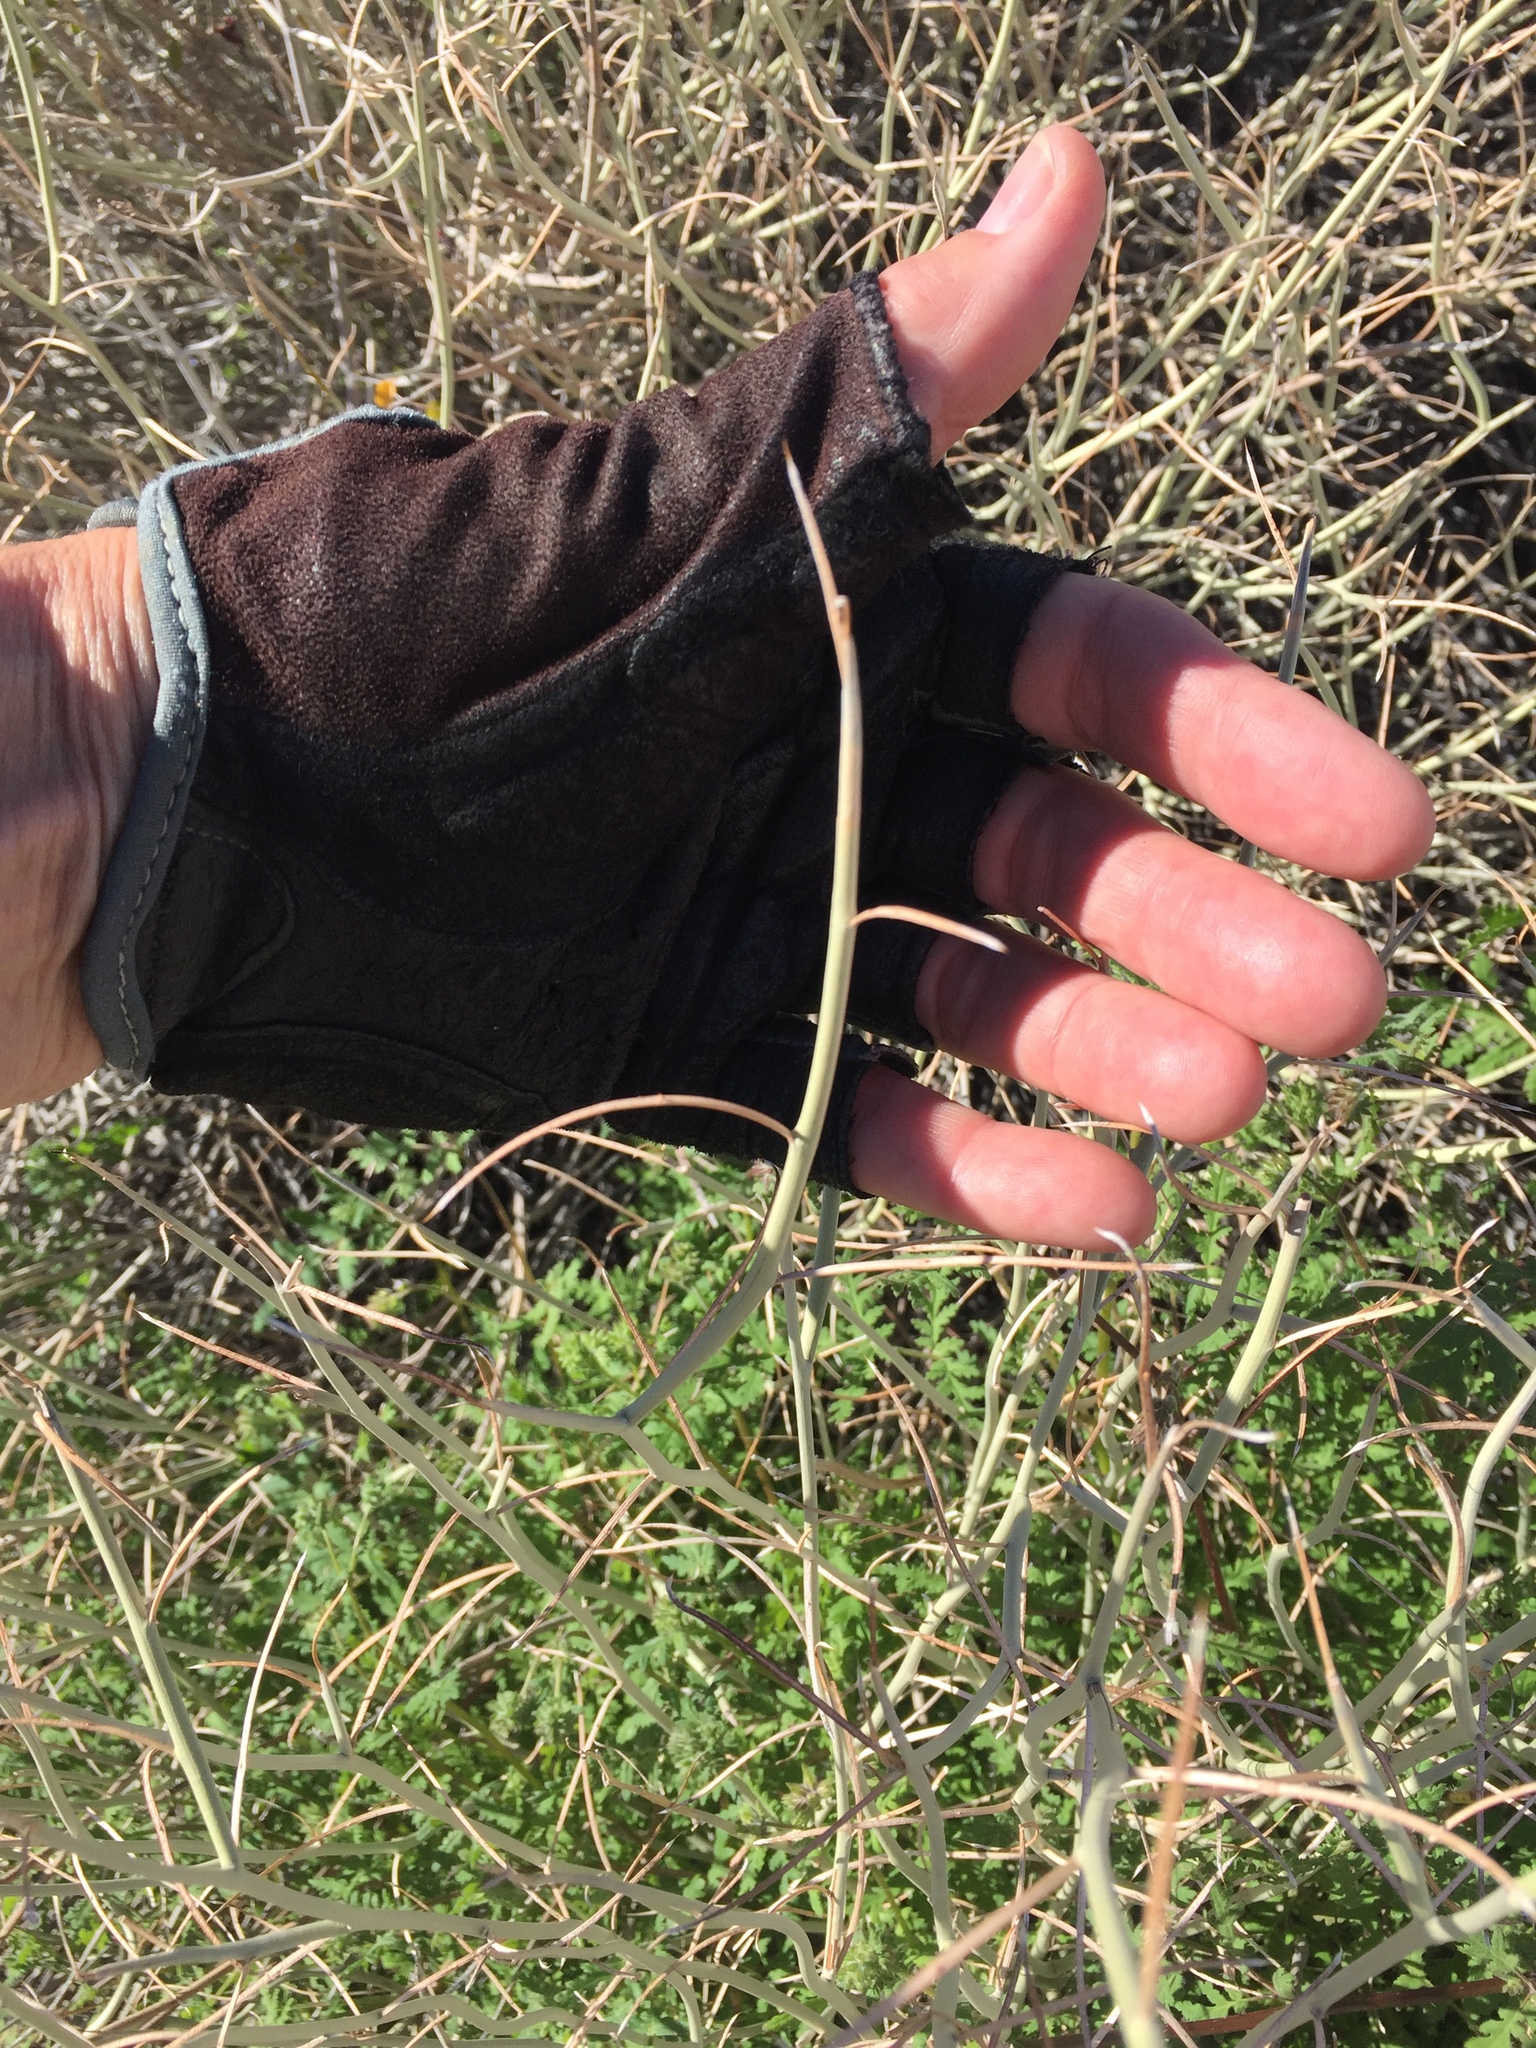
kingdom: Plantae
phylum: Tracheophyta
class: Magnoliopsida
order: Fabales
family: Fabaceae
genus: Senna
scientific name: Senna armata
